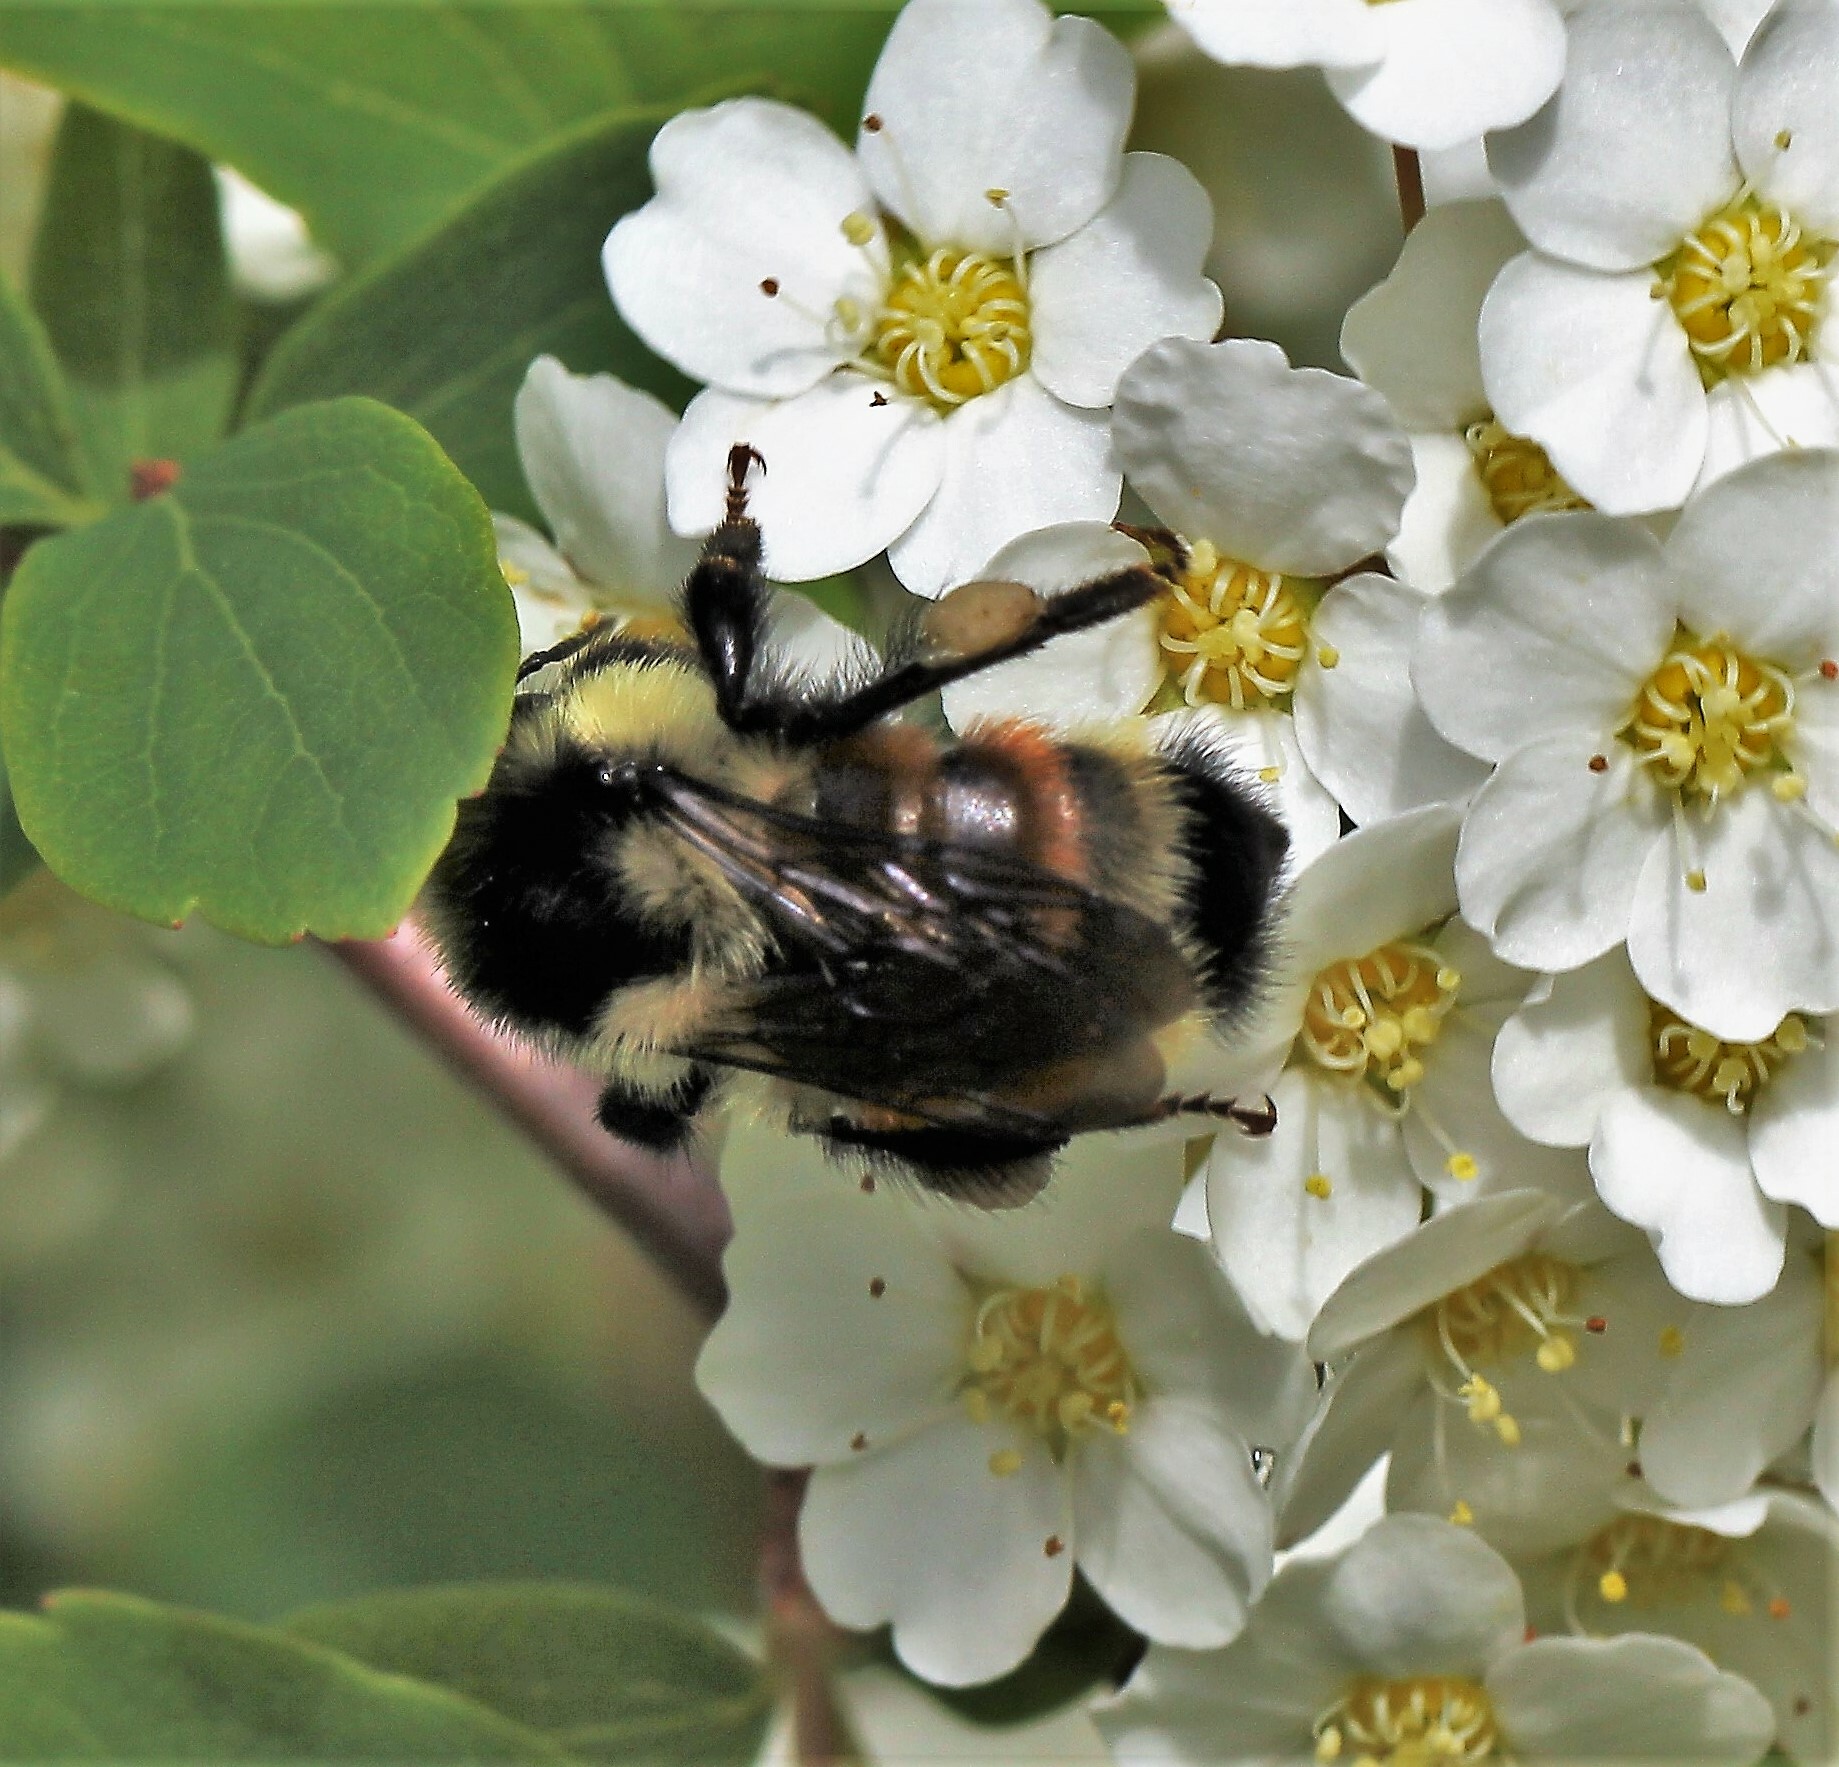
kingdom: Animalia
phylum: Arthropoda
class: Insecta
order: Hymenoptera
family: Apidae
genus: Bombus
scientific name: Bombus ternarius
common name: Tri-colored bumble bee
